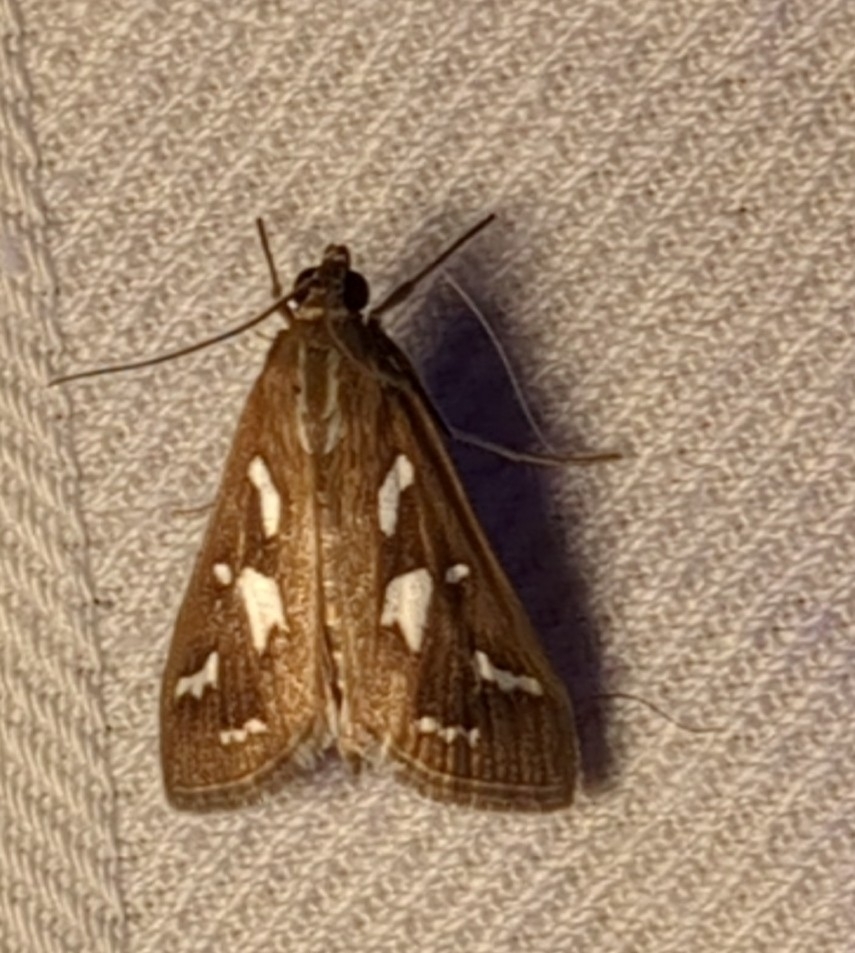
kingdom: Animalia
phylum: Arthropoda
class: Insecta
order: Lepidoptera
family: Crambidae
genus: Diastictis
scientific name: Diastictis fracturalis
